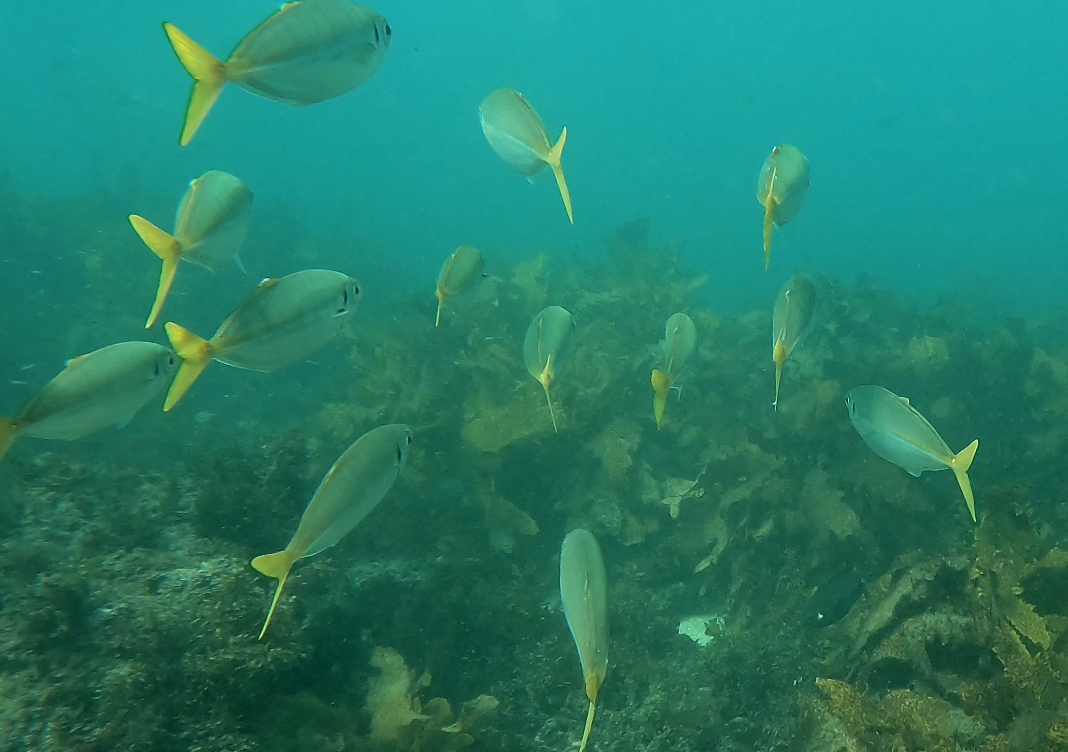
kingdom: Animalia
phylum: Chordata
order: Perciformes
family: Carangidae
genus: Trachurus
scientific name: Trachurus novaezelandiae
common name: Yellowtail horse mackerel
